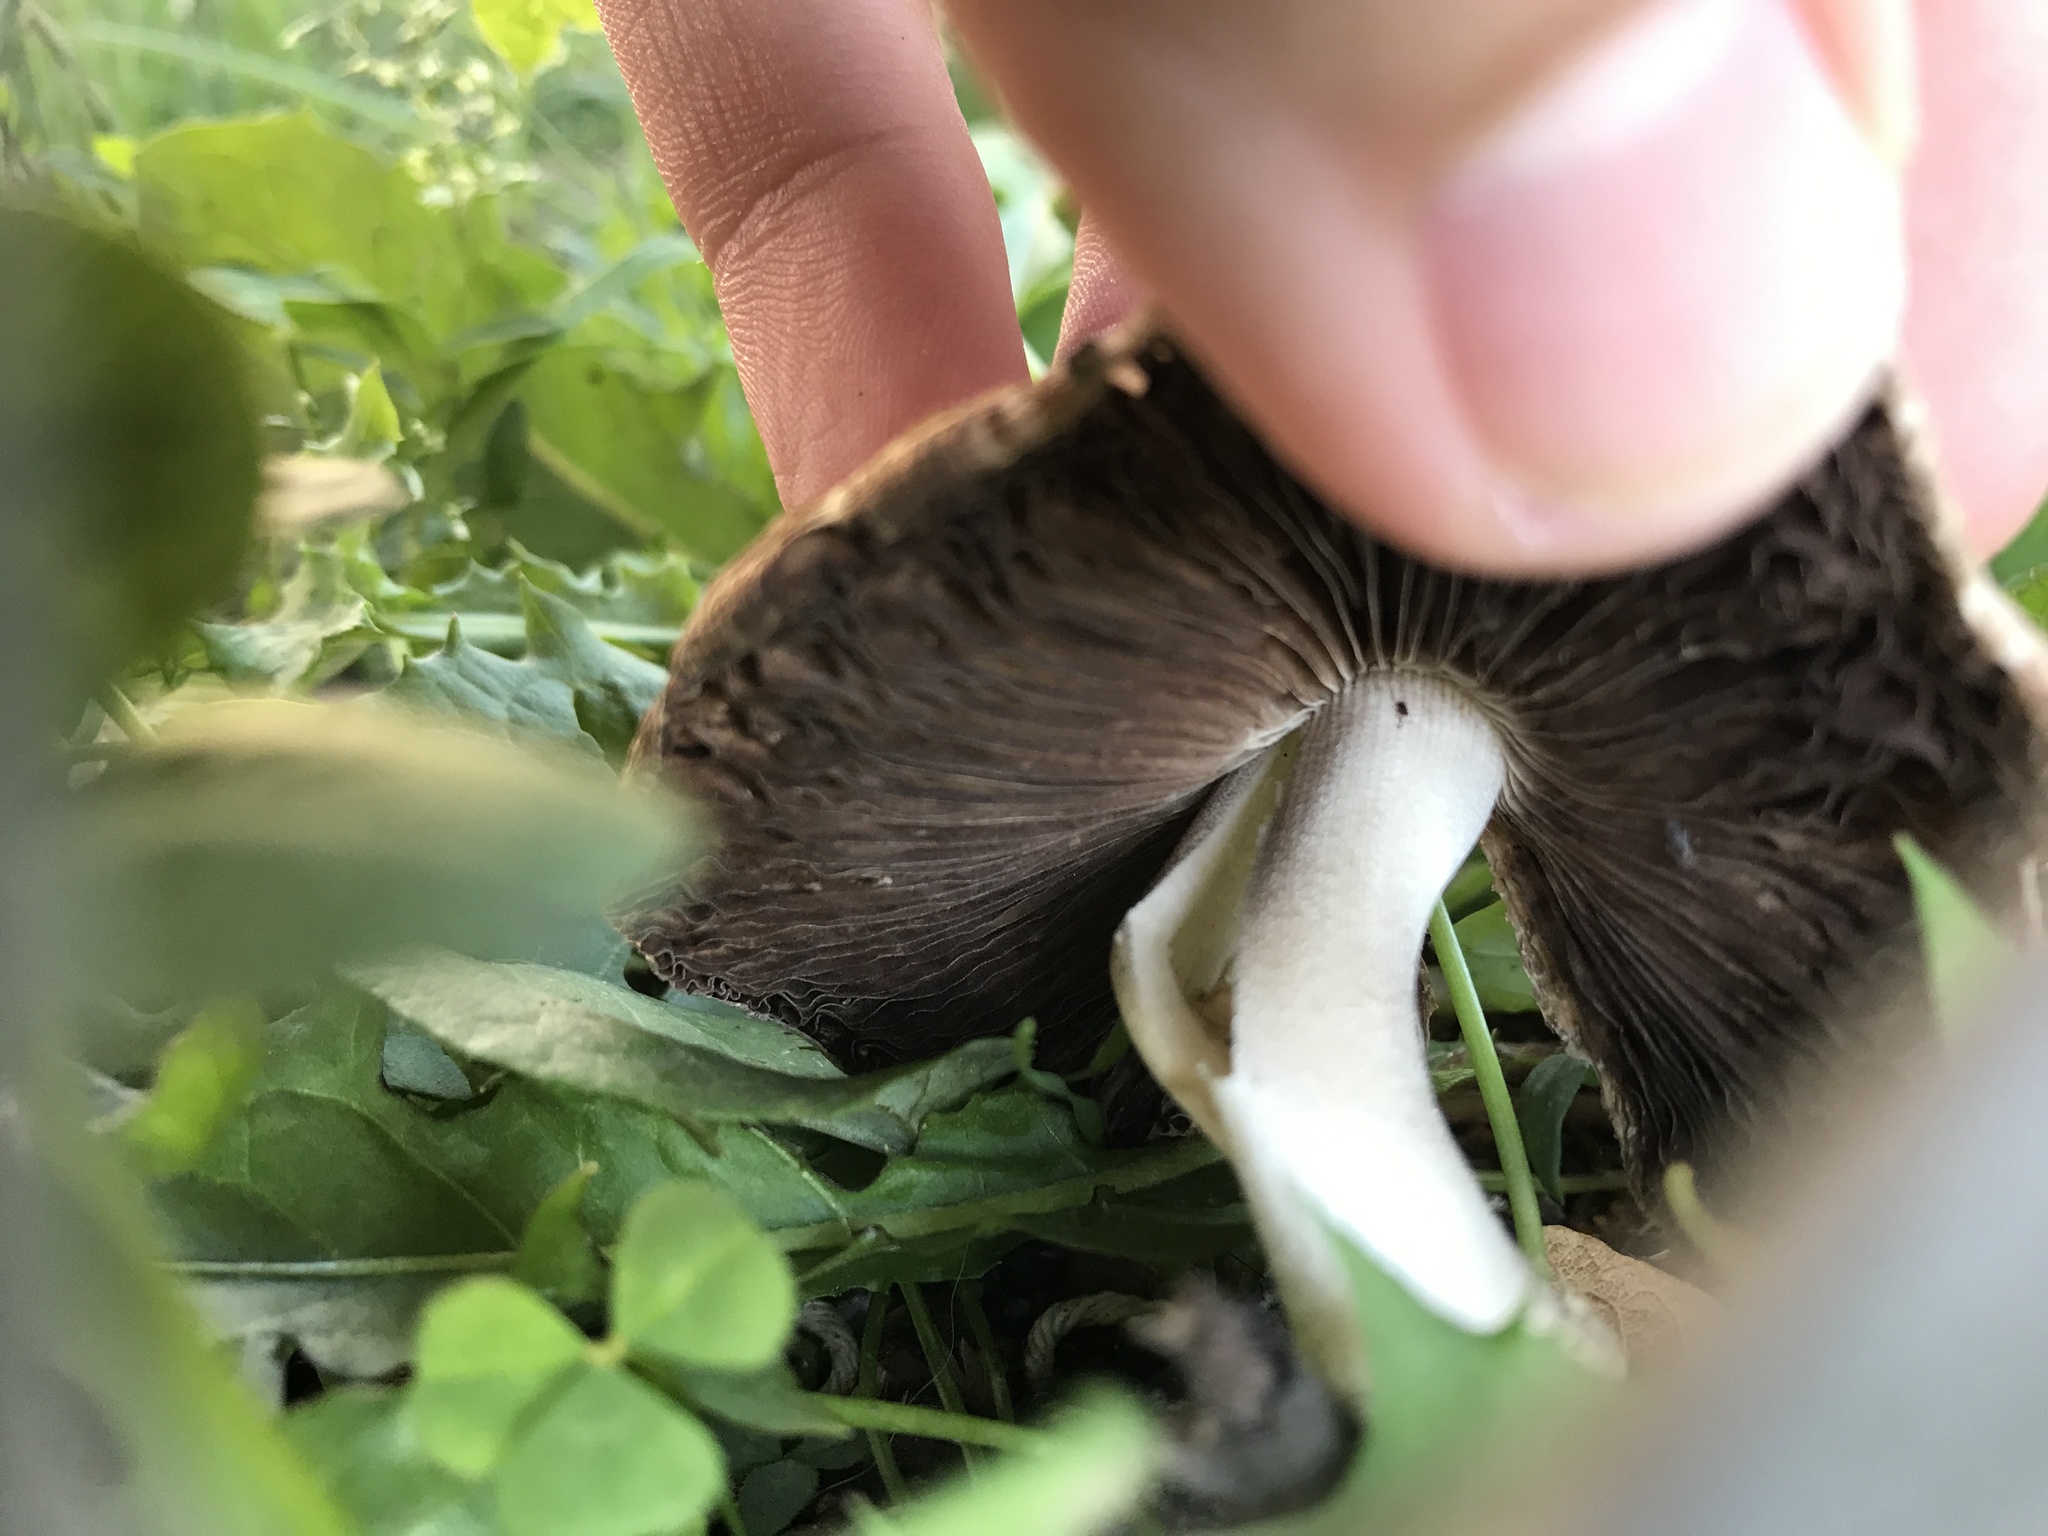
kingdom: Fungi
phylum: Basidiomycota
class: Agaricomycetes
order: Agaricales
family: Psathyrellaceae
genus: Candolleomyces
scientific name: Candolleomyces candolleanus
